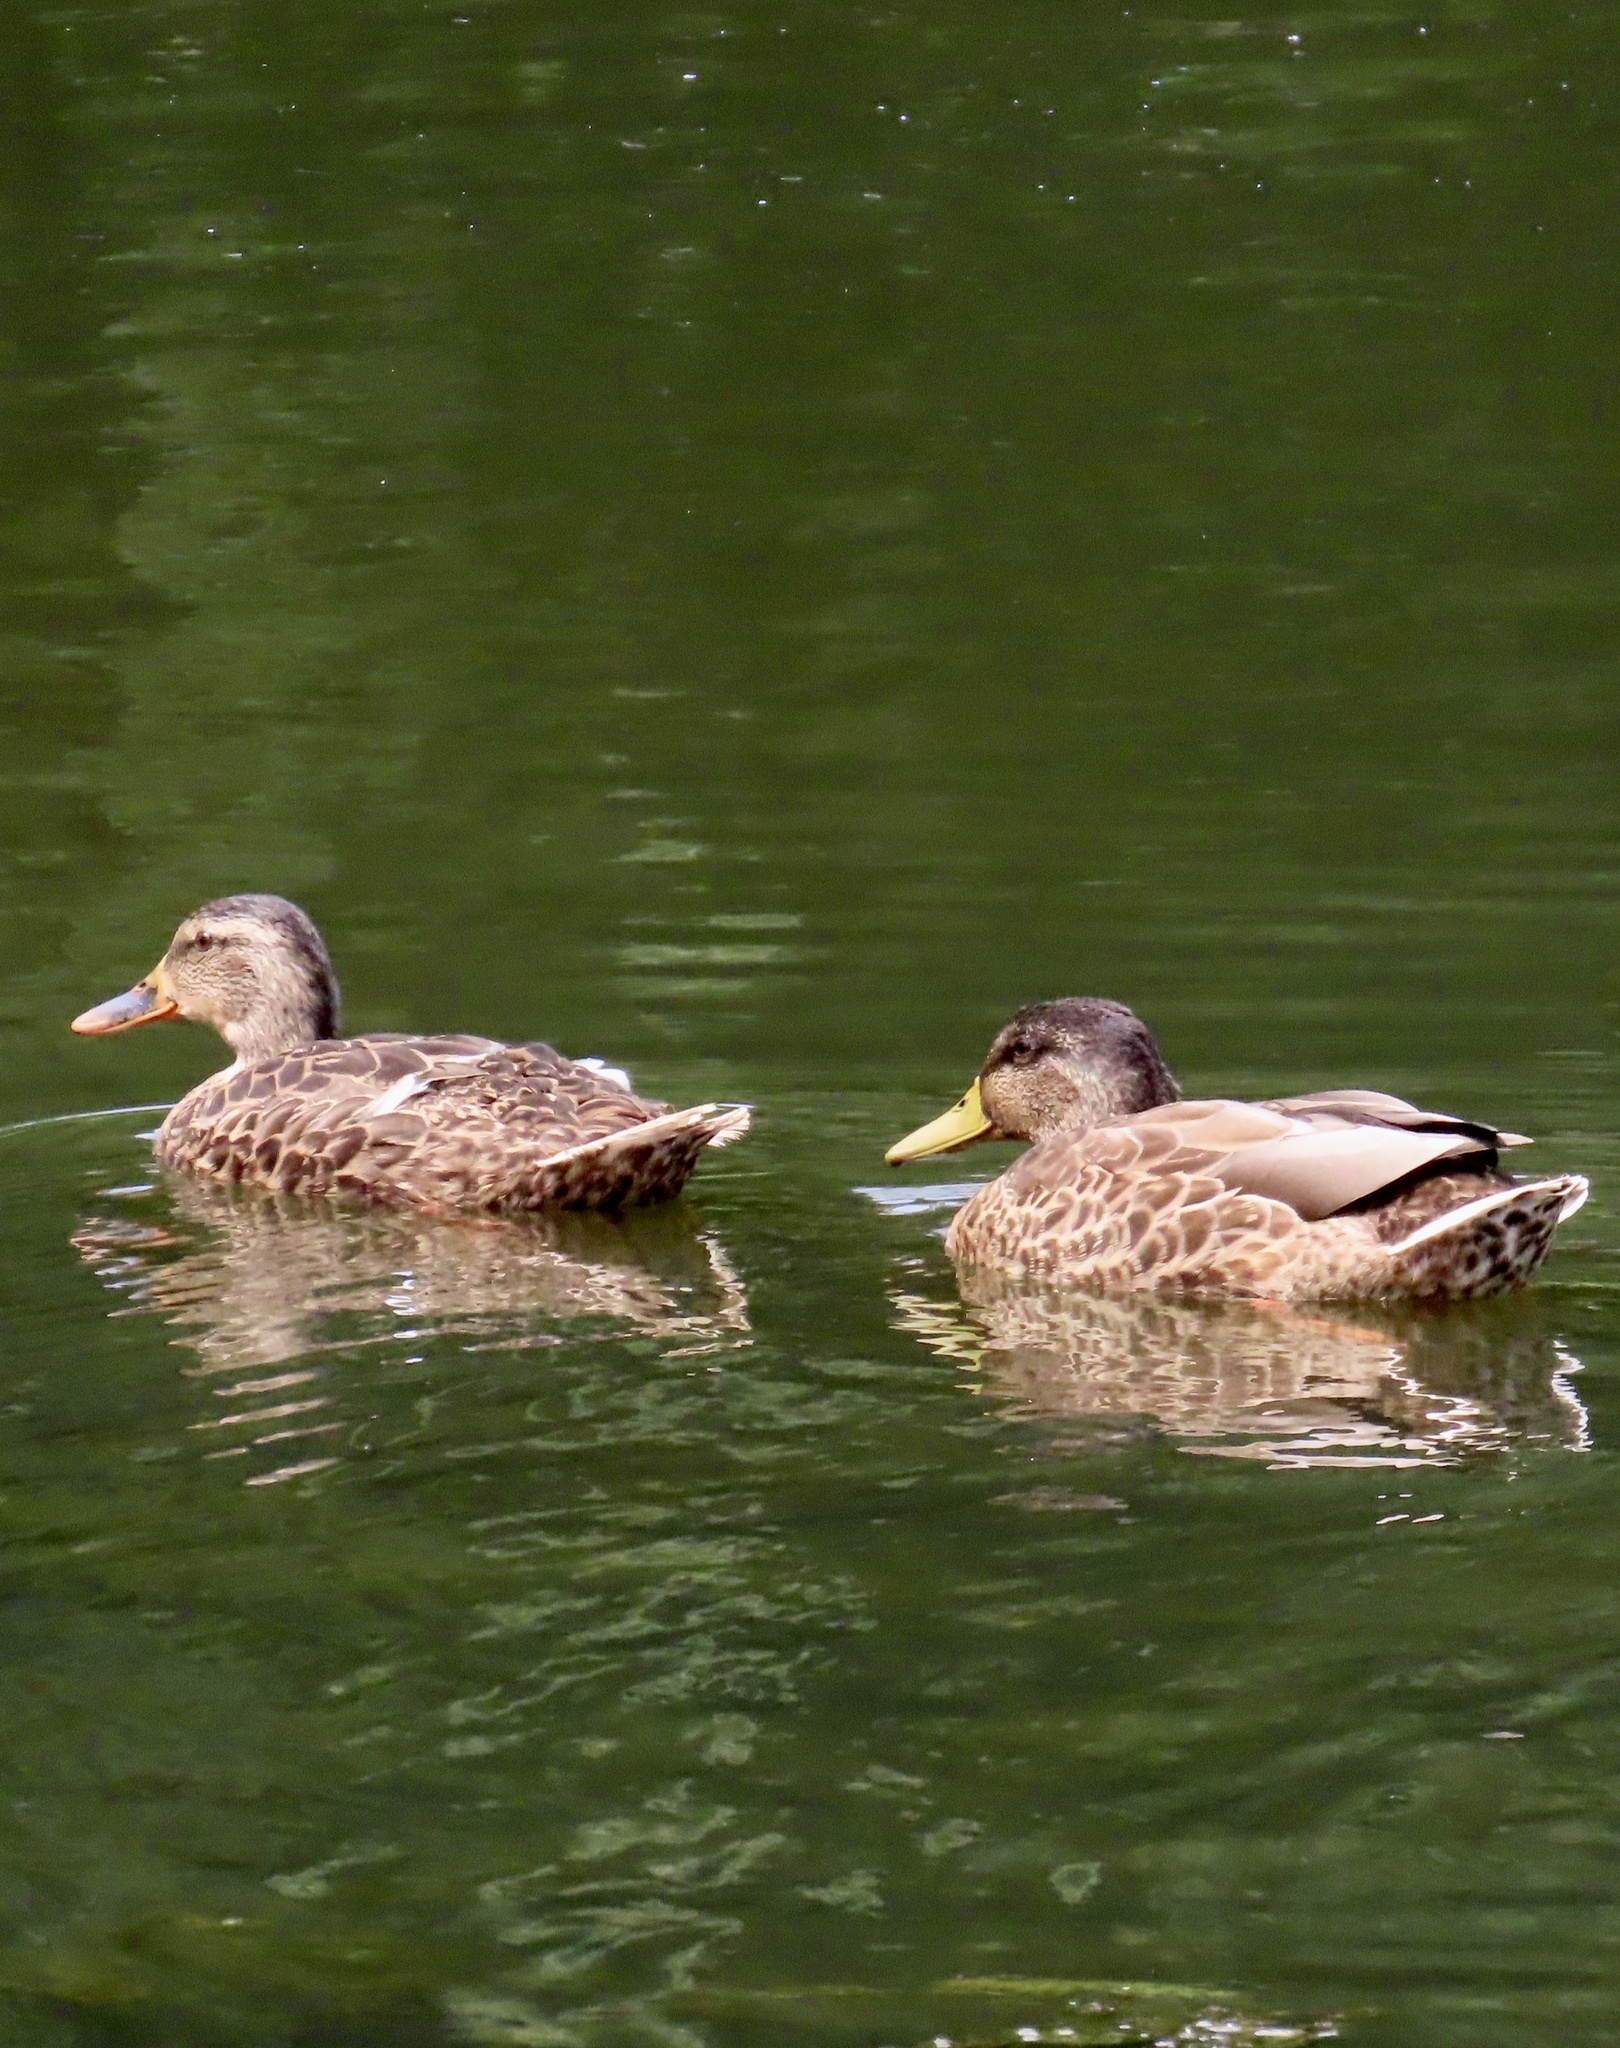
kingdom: Animalia
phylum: Chordata
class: Aves
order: Anseriformes
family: Anatidae
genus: Anas
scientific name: Anas platyrhynchos
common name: Mallard
